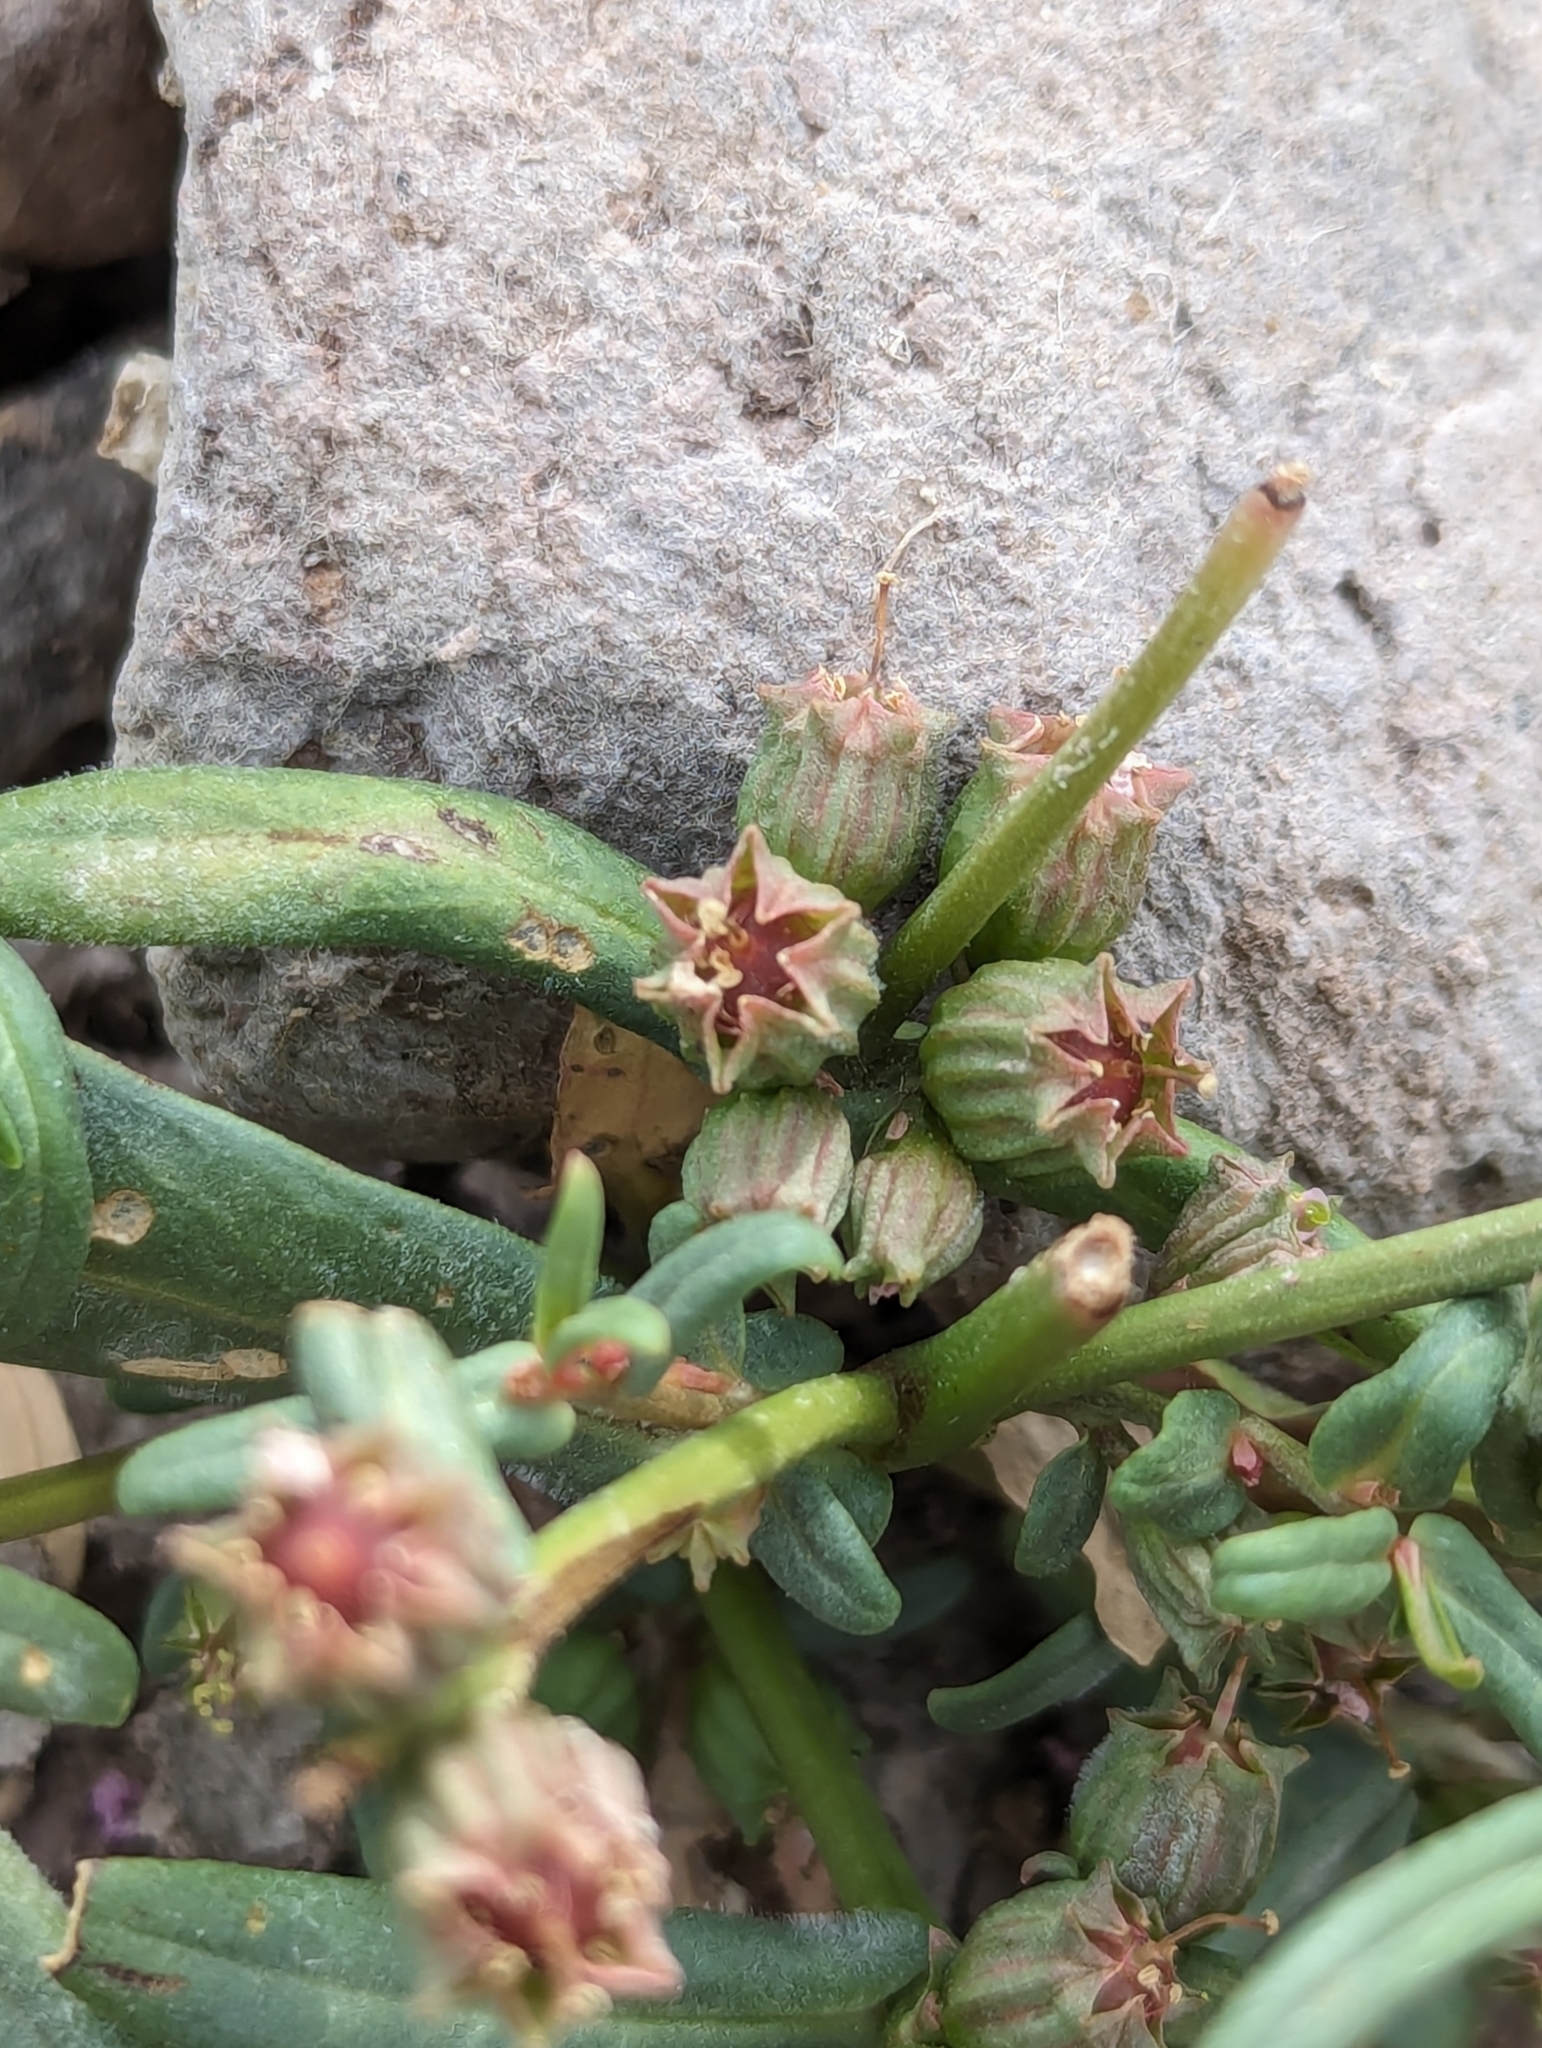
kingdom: Plantae
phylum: Tracheophyta
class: Magnoliopsida
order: Myrtales
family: Lythraceae
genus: Ammannia
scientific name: Ammannia robusta
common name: Grand ammannia
